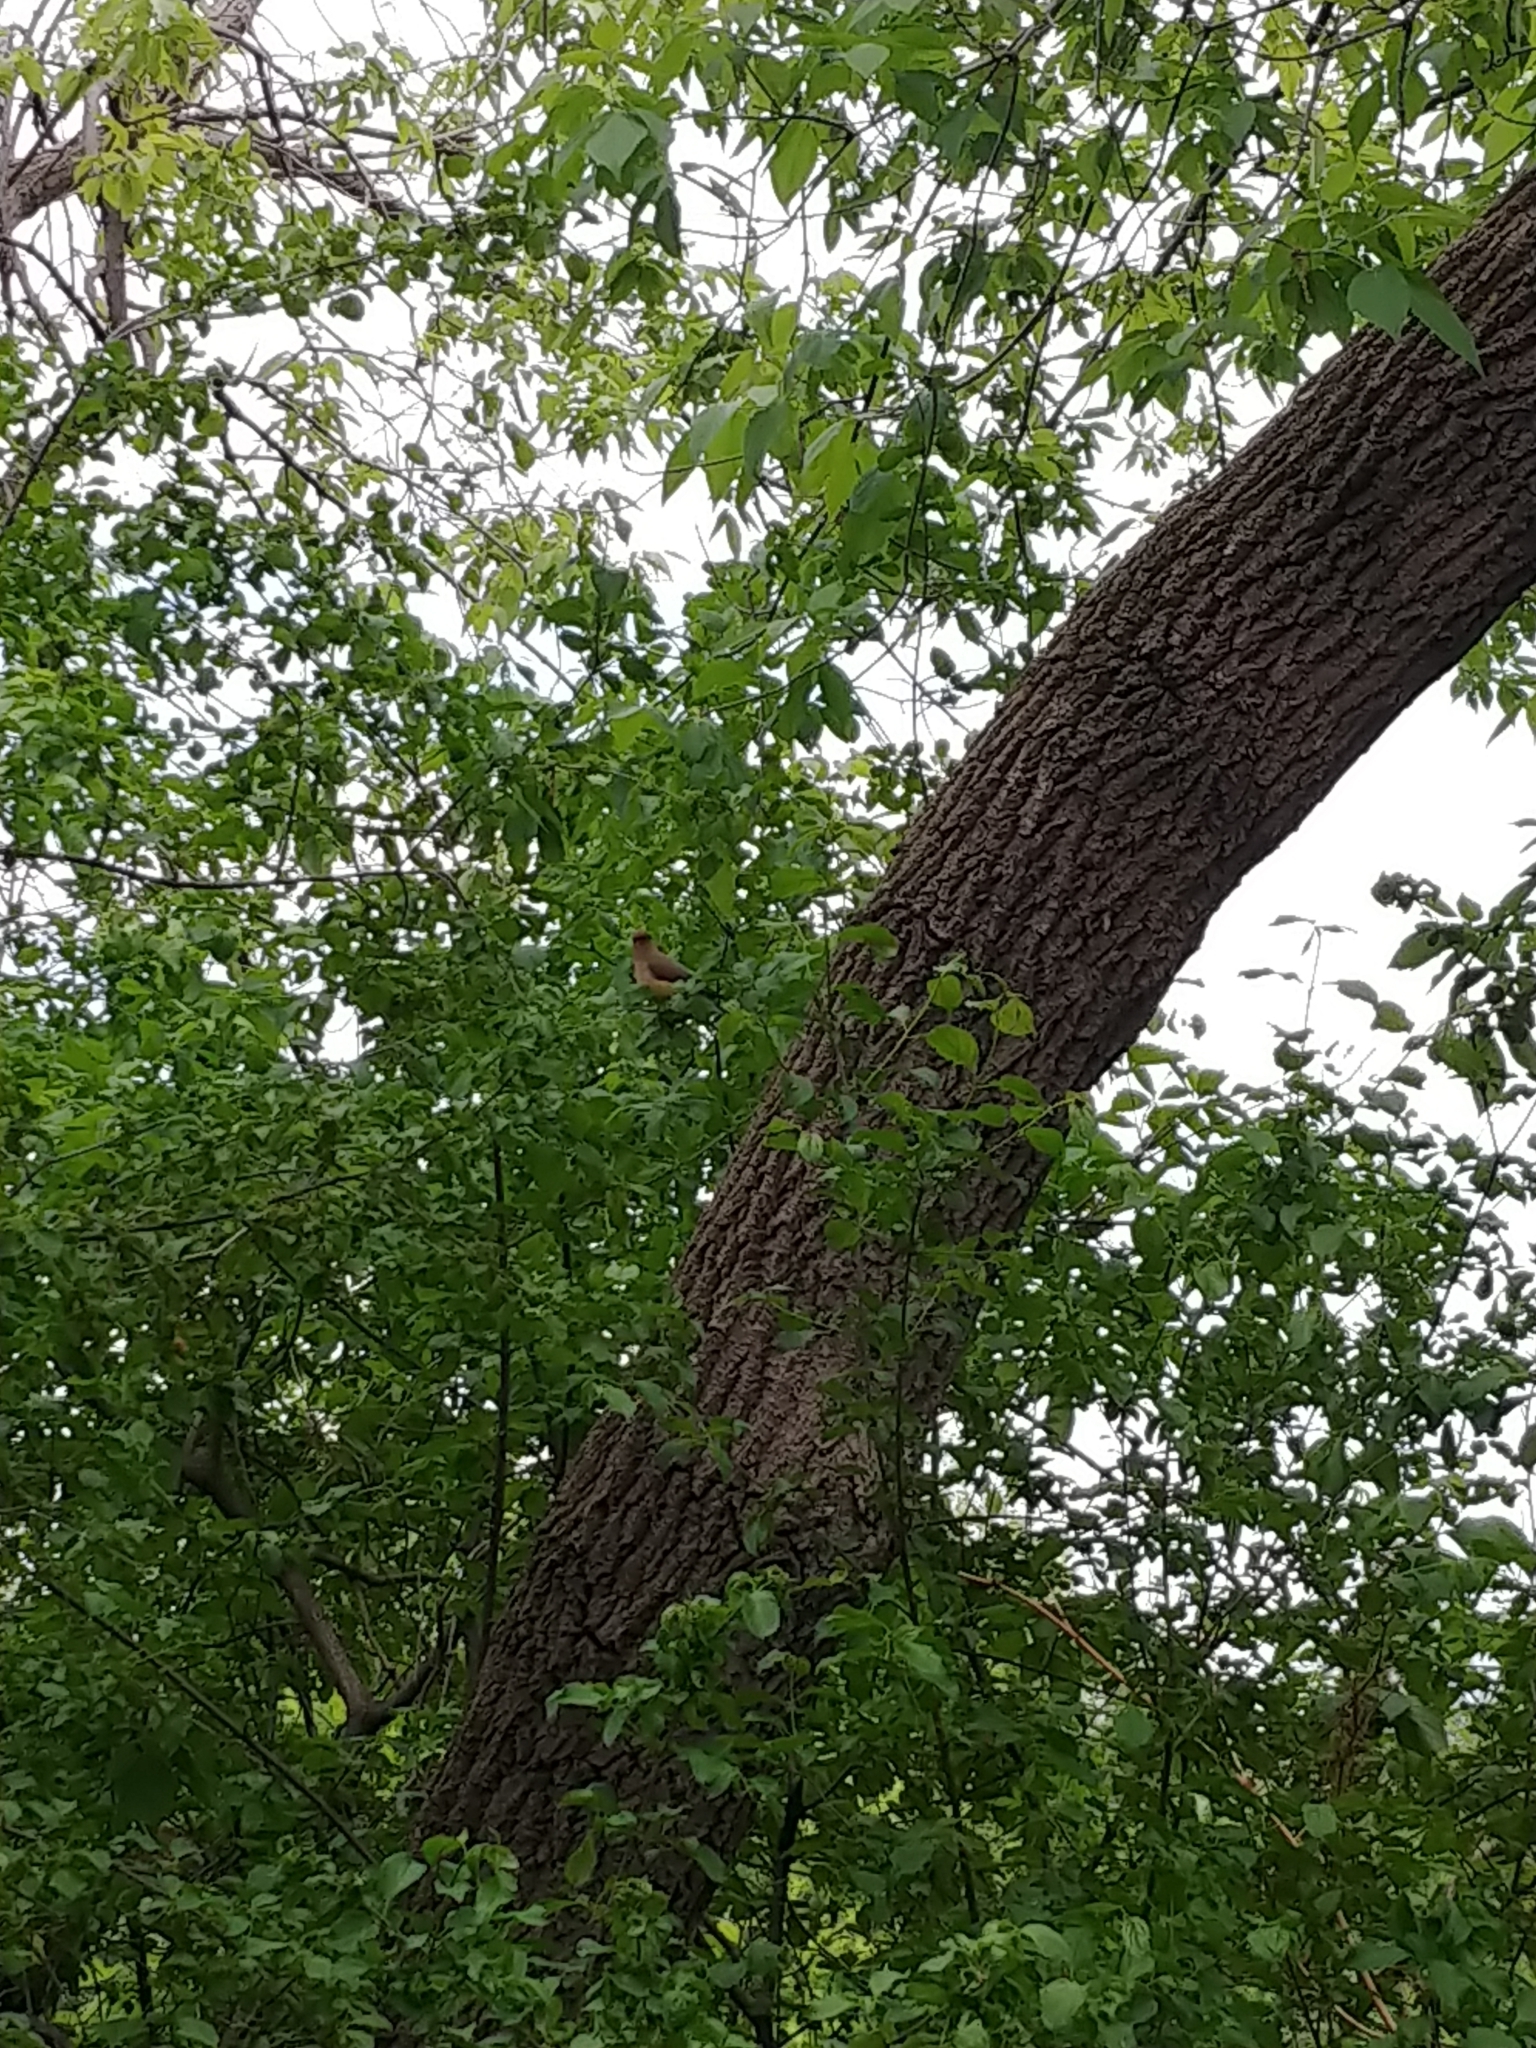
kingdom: Animalia
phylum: Chordata
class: Aves
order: Passeriformes
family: Bombycillidae
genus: Bombycilla
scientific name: Bombycilla cedrorum
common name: Cedar waxwing
